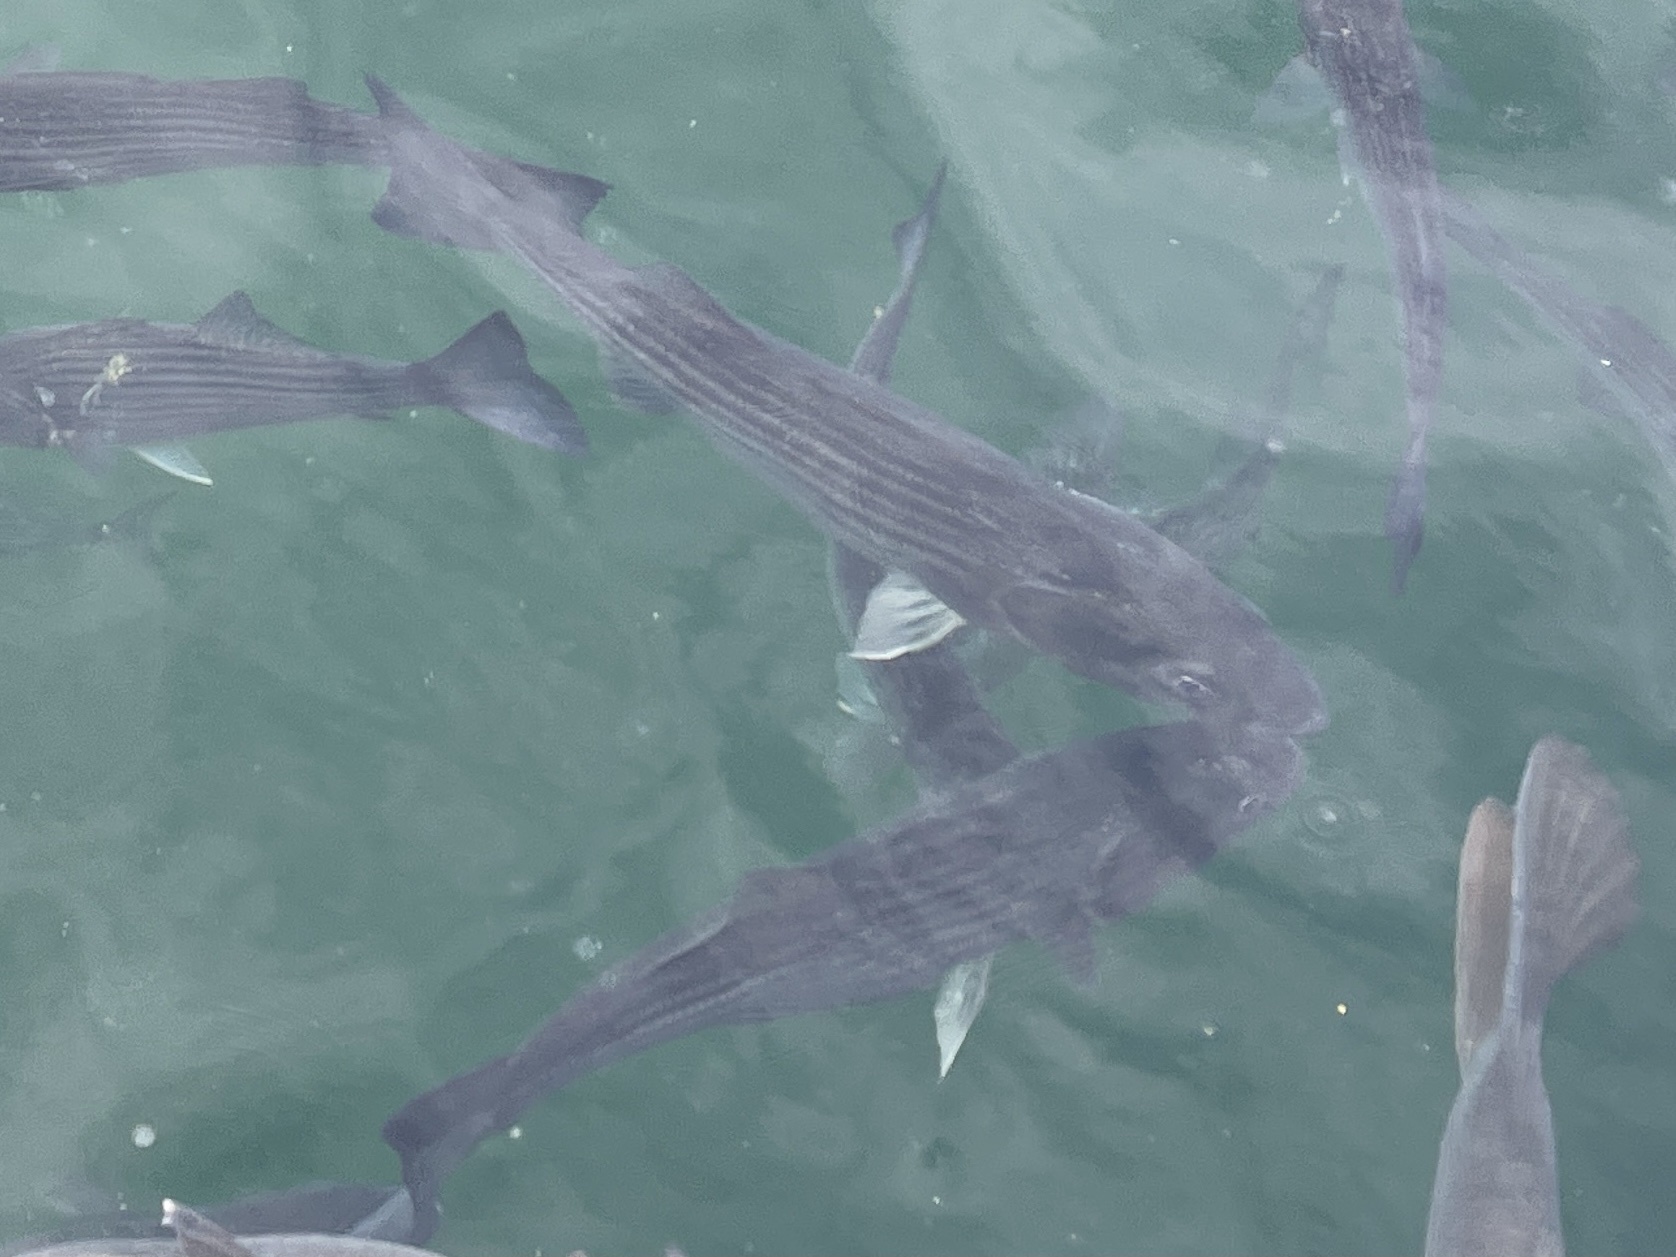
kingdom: Animalia
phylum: Chordata
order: Perciformes
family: Moronidae
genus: Morone
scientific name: Morone saxatilis
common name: Striped bass
